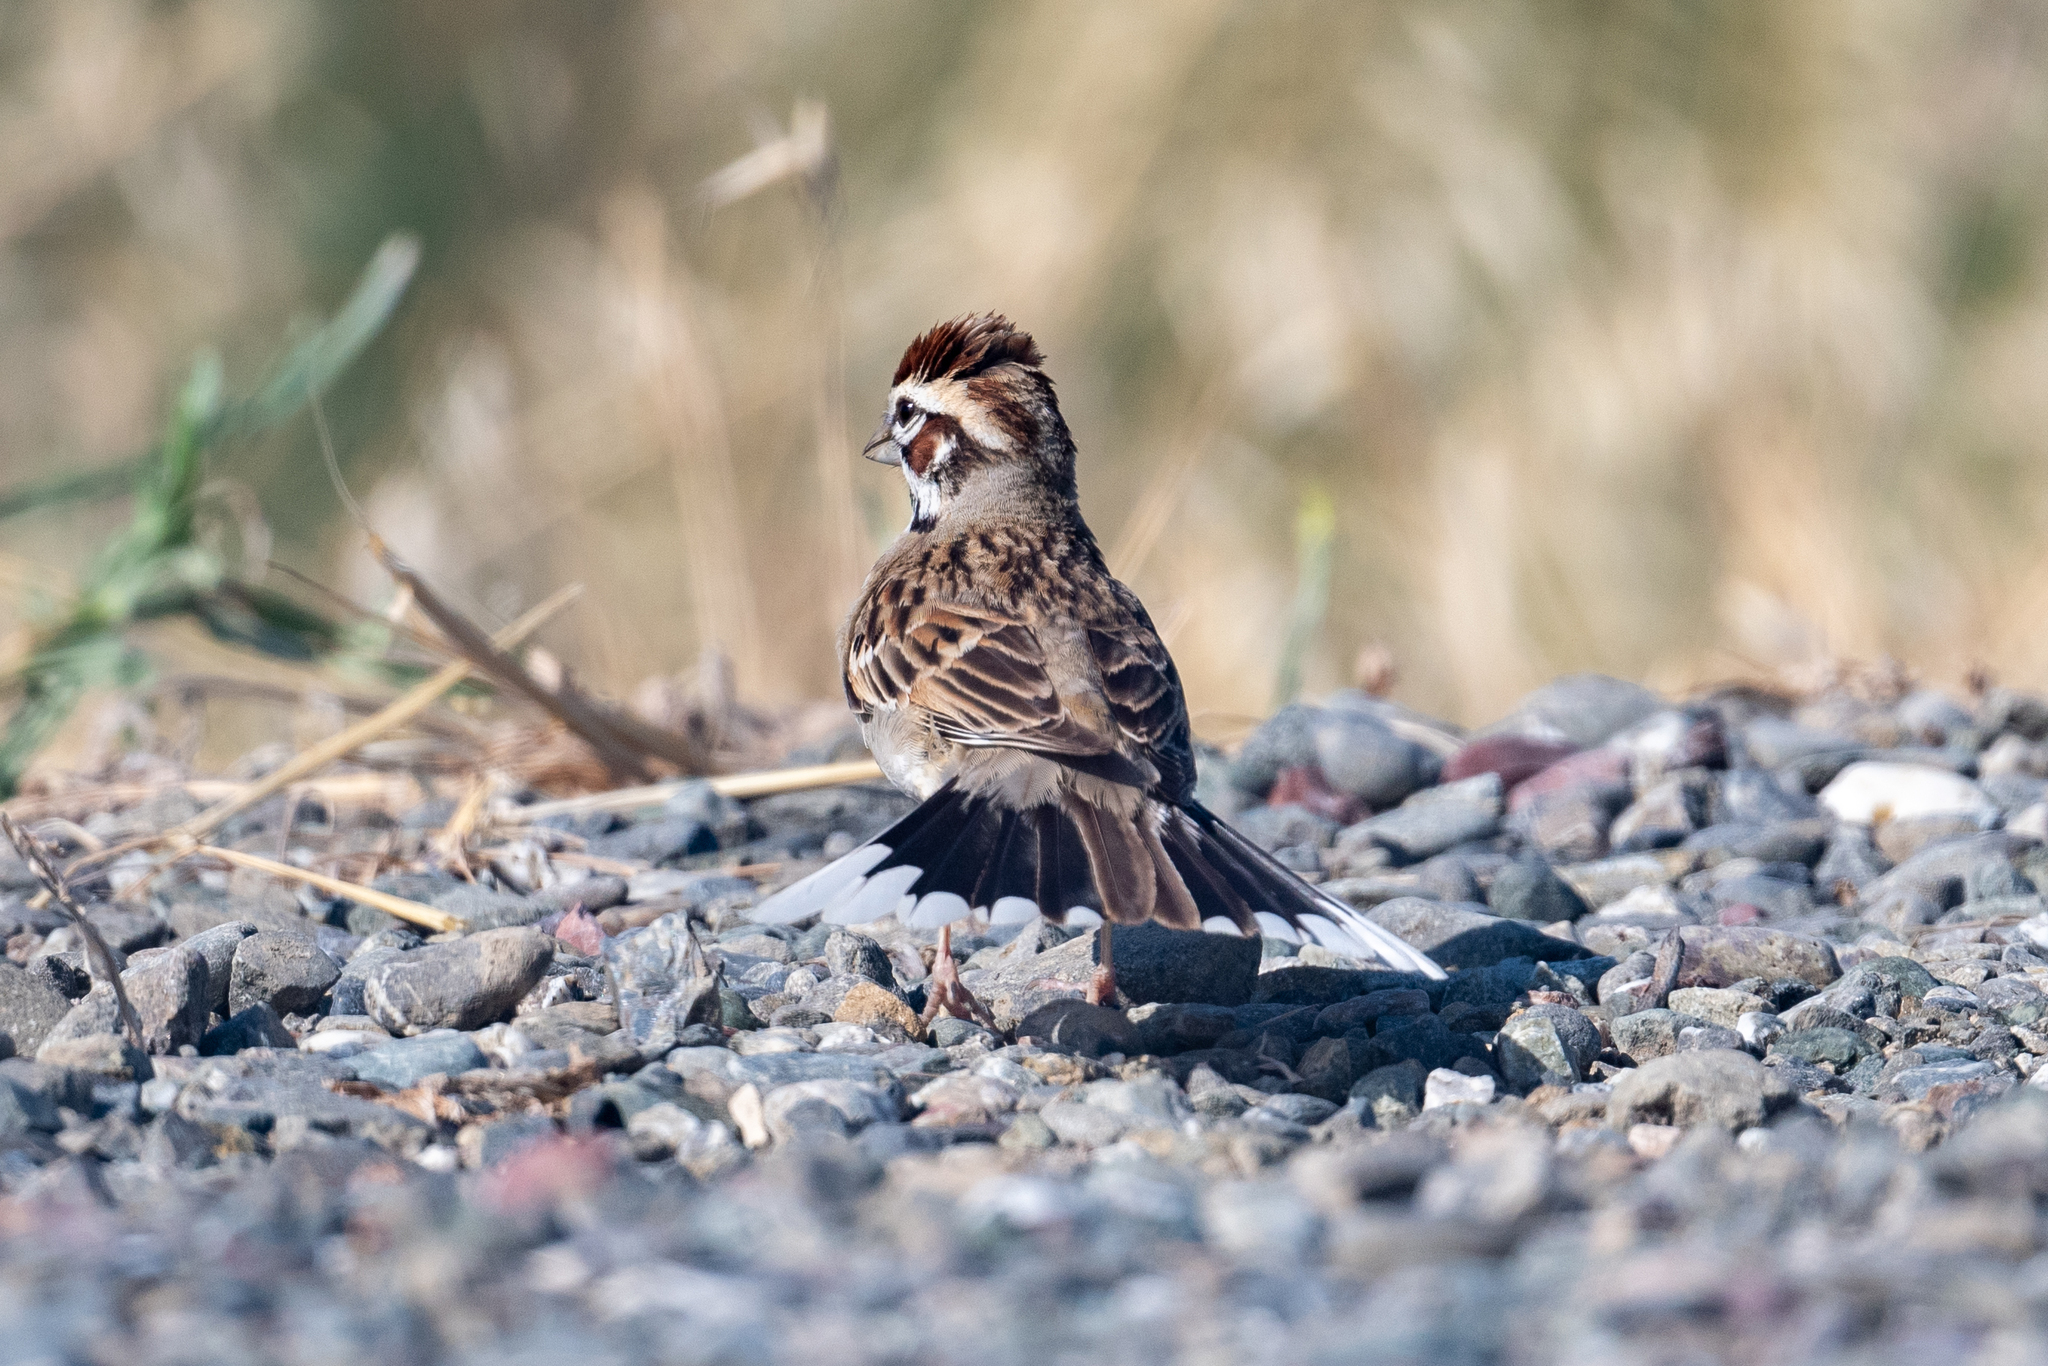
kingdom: Animalia
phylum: Chordata
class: Aves
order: Passeriformes
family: Passerellidae
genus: Chondestes
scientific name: Chondestes grammacus
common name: Lark sparrow
